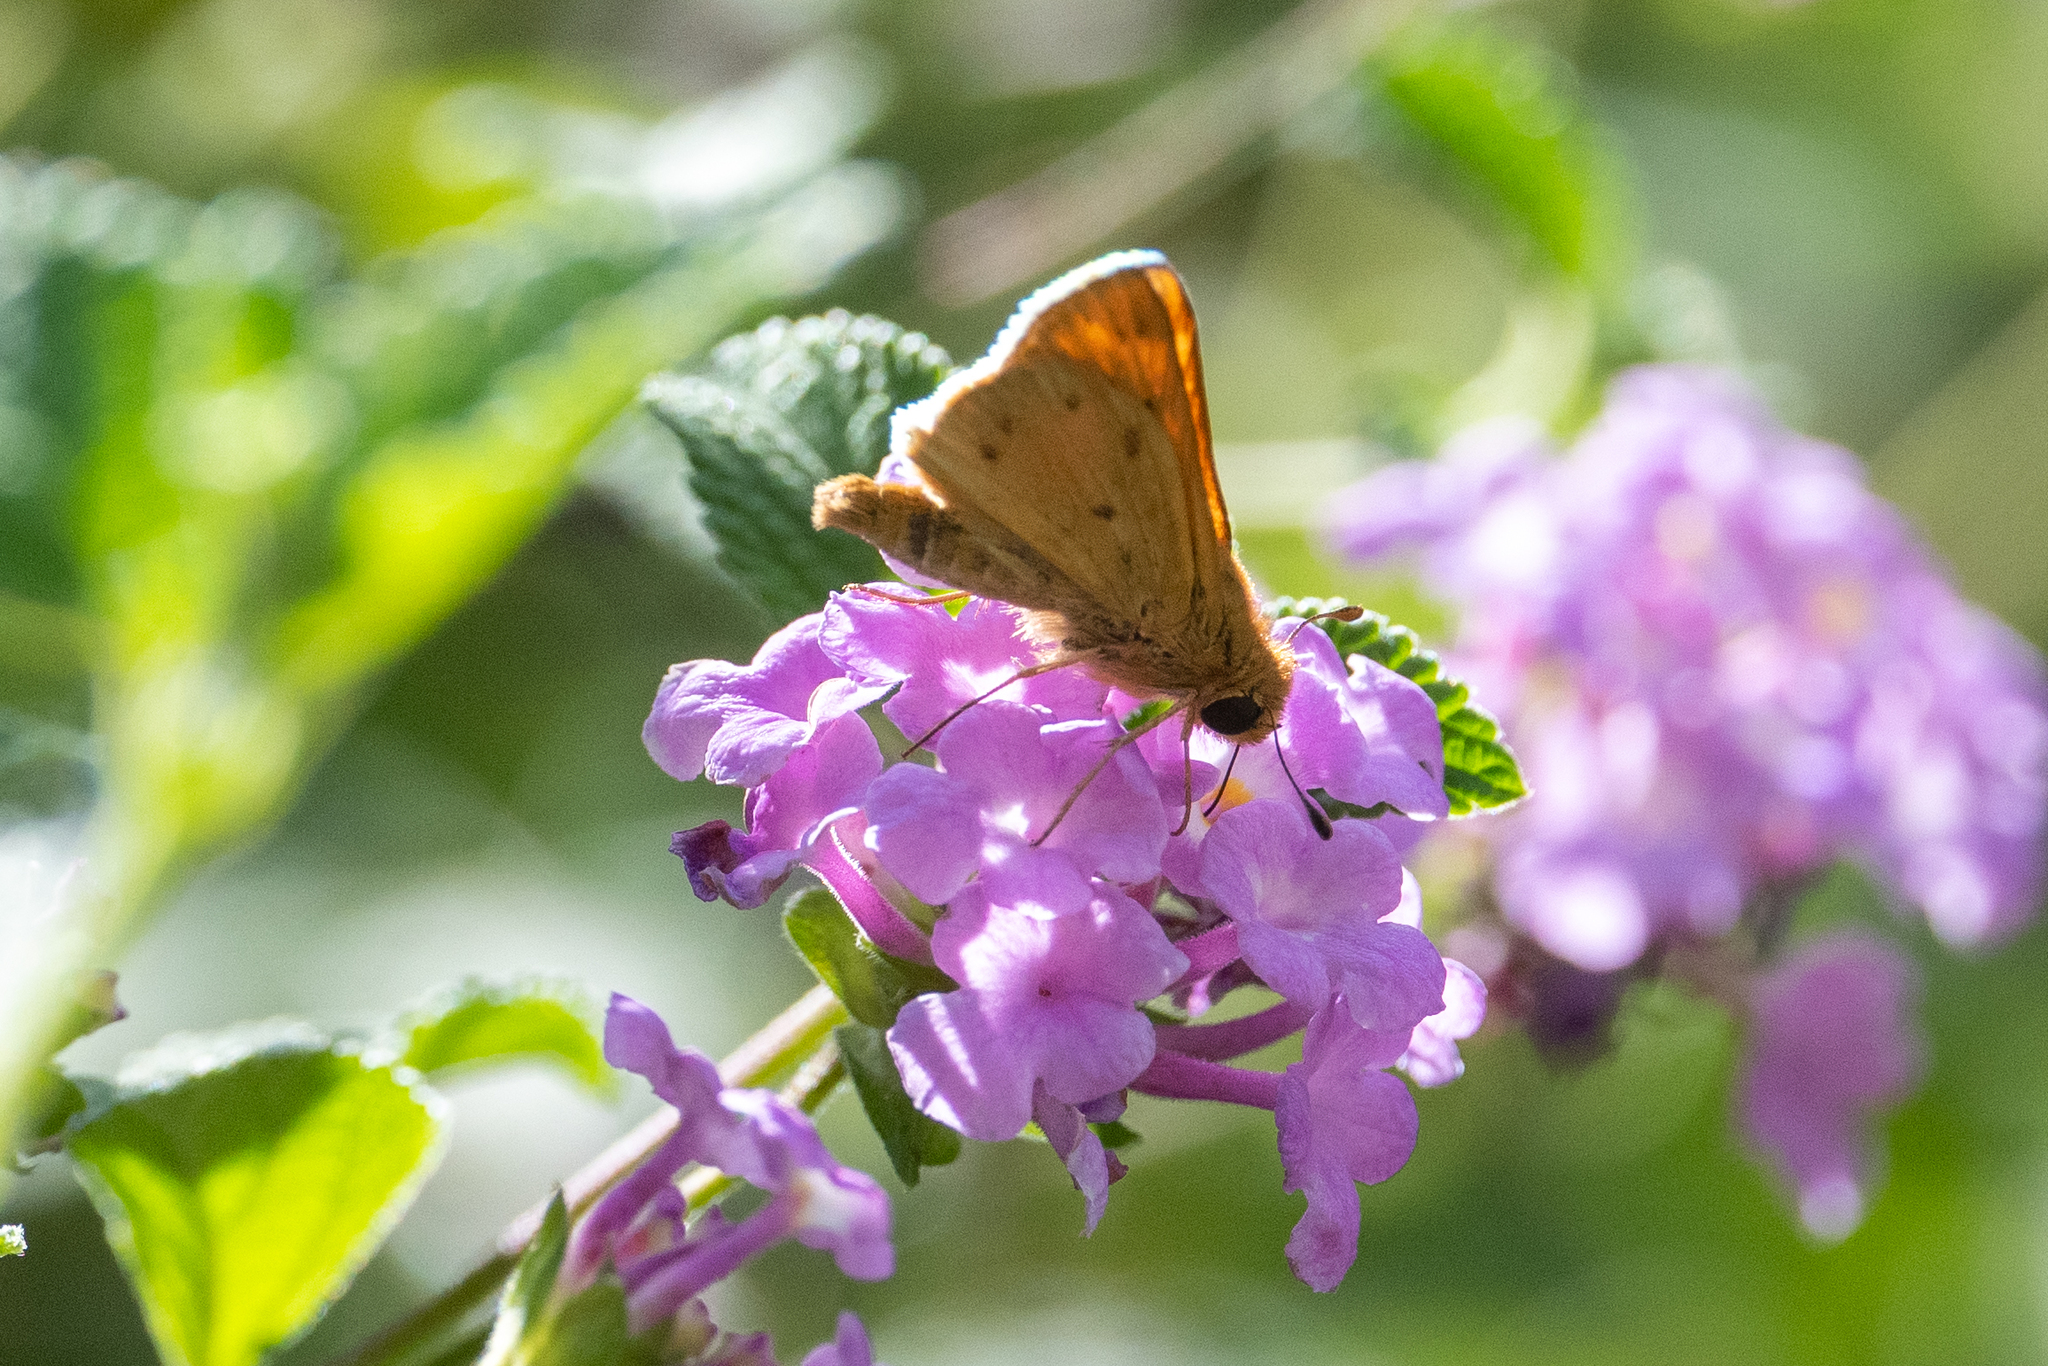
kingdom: Animalia
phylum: Arthropoda
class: Insecta
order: Lepidoptera
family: Hesperiidae
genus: Hylephila
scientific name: Hylephila phyleus
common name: Fiery skipper
